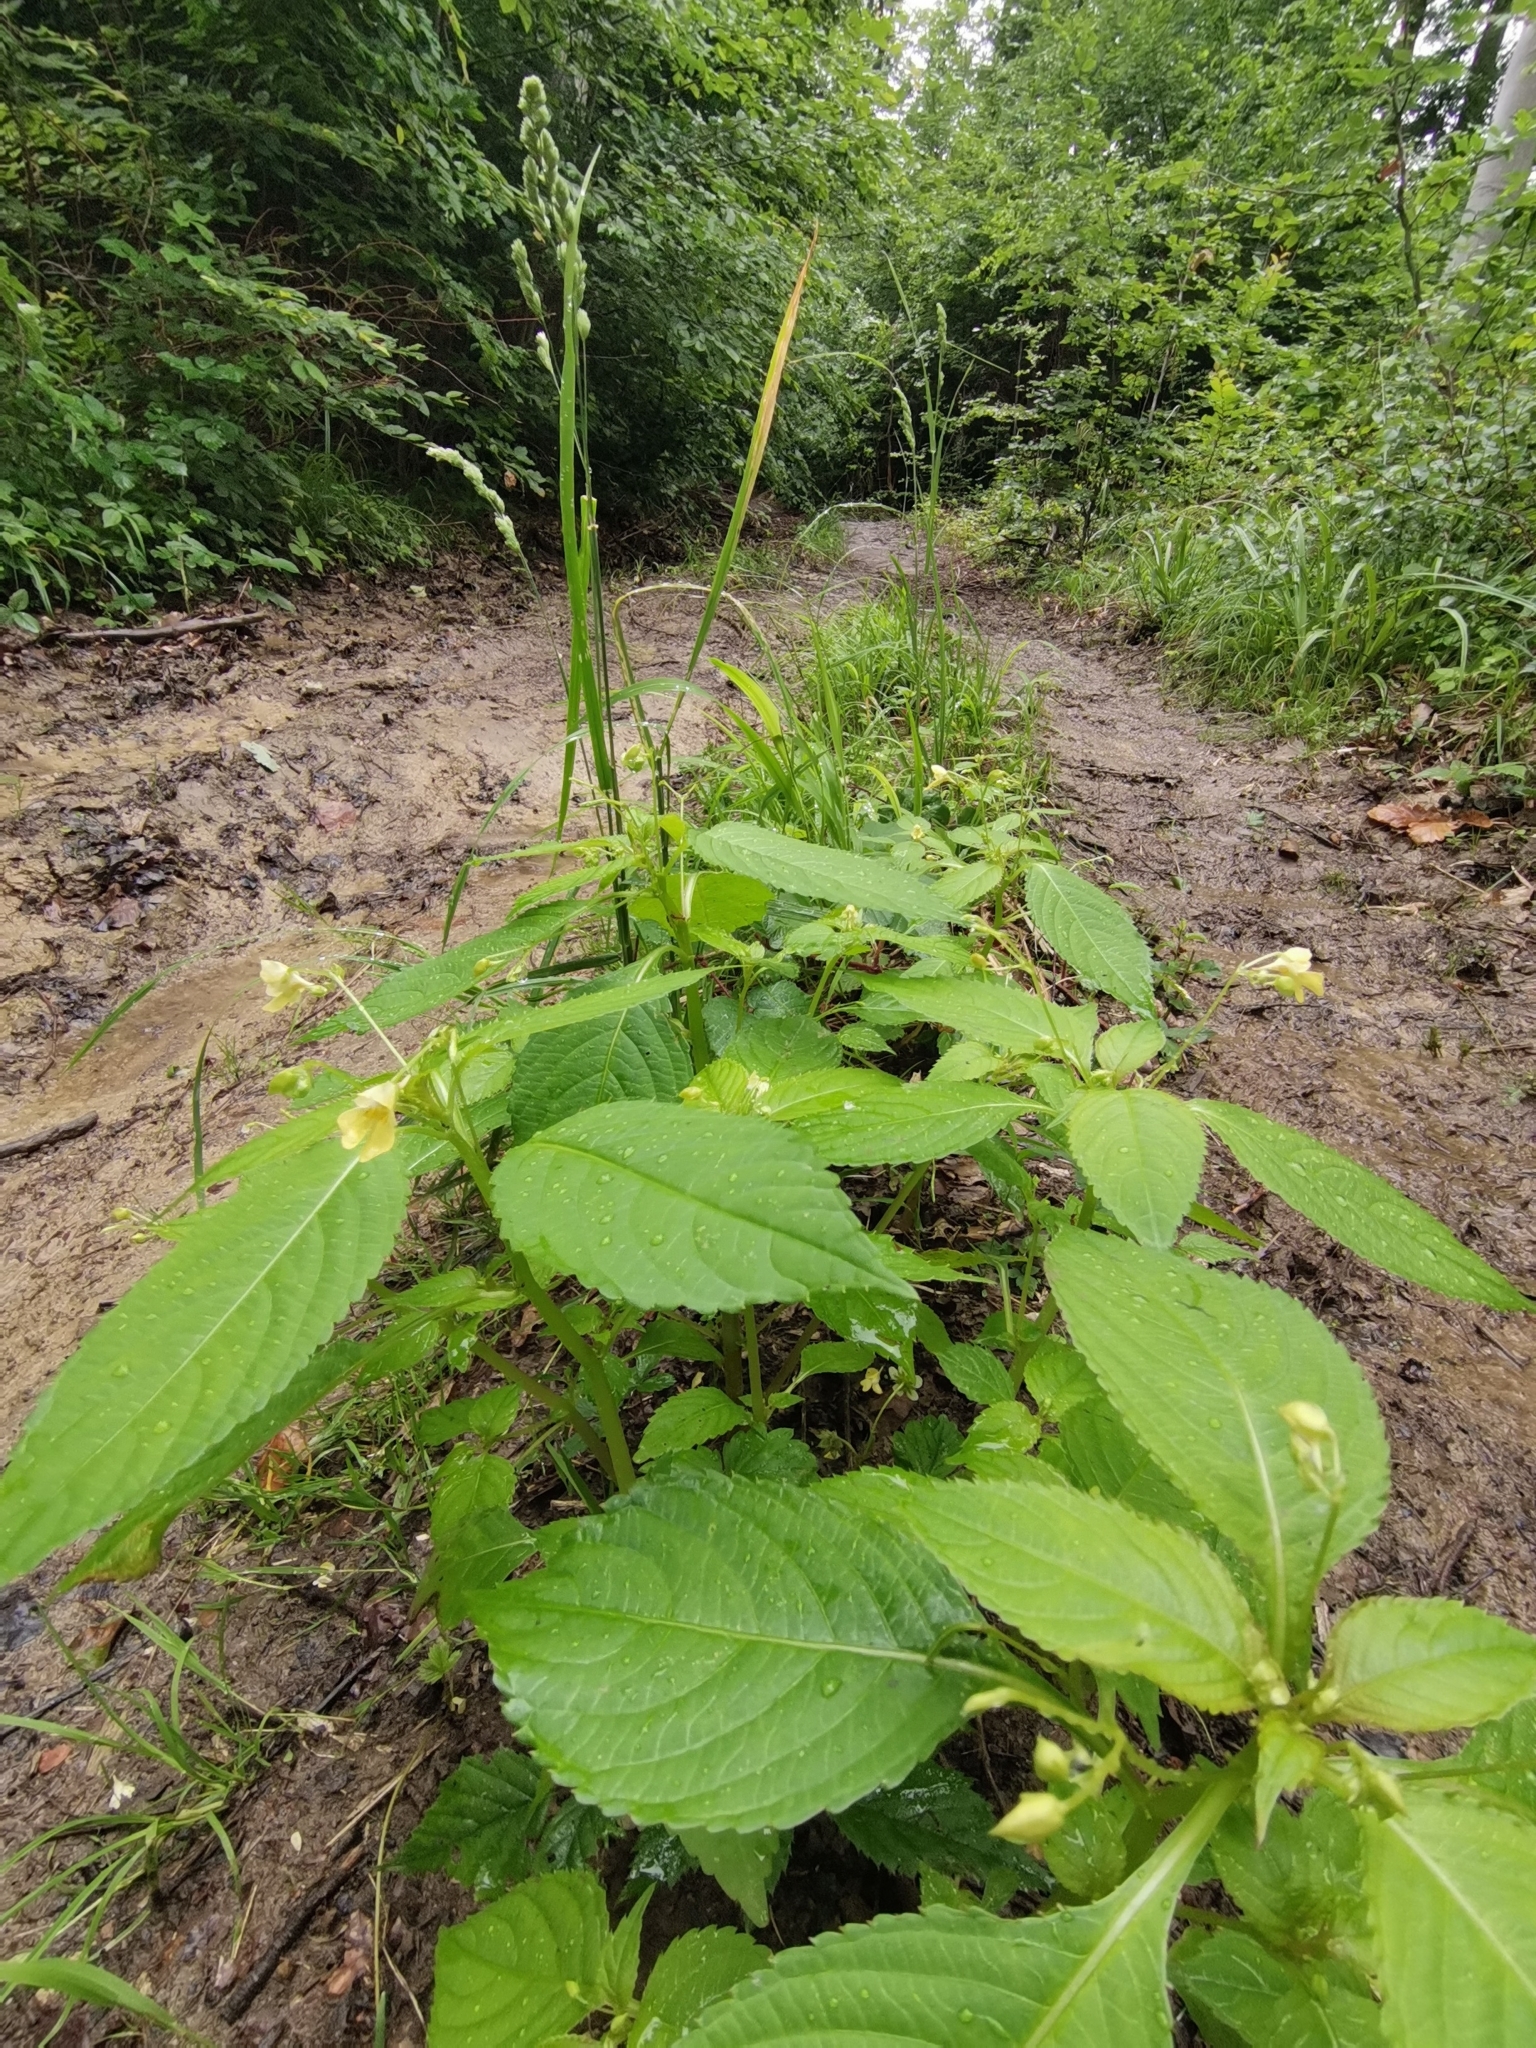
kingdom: Plantae
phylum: Tracheophyta
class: Magnoliopsida
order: Ericales
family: Balsaminaceae
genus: Impatiens
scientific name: Impatiens parviflora
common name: Small balsam
